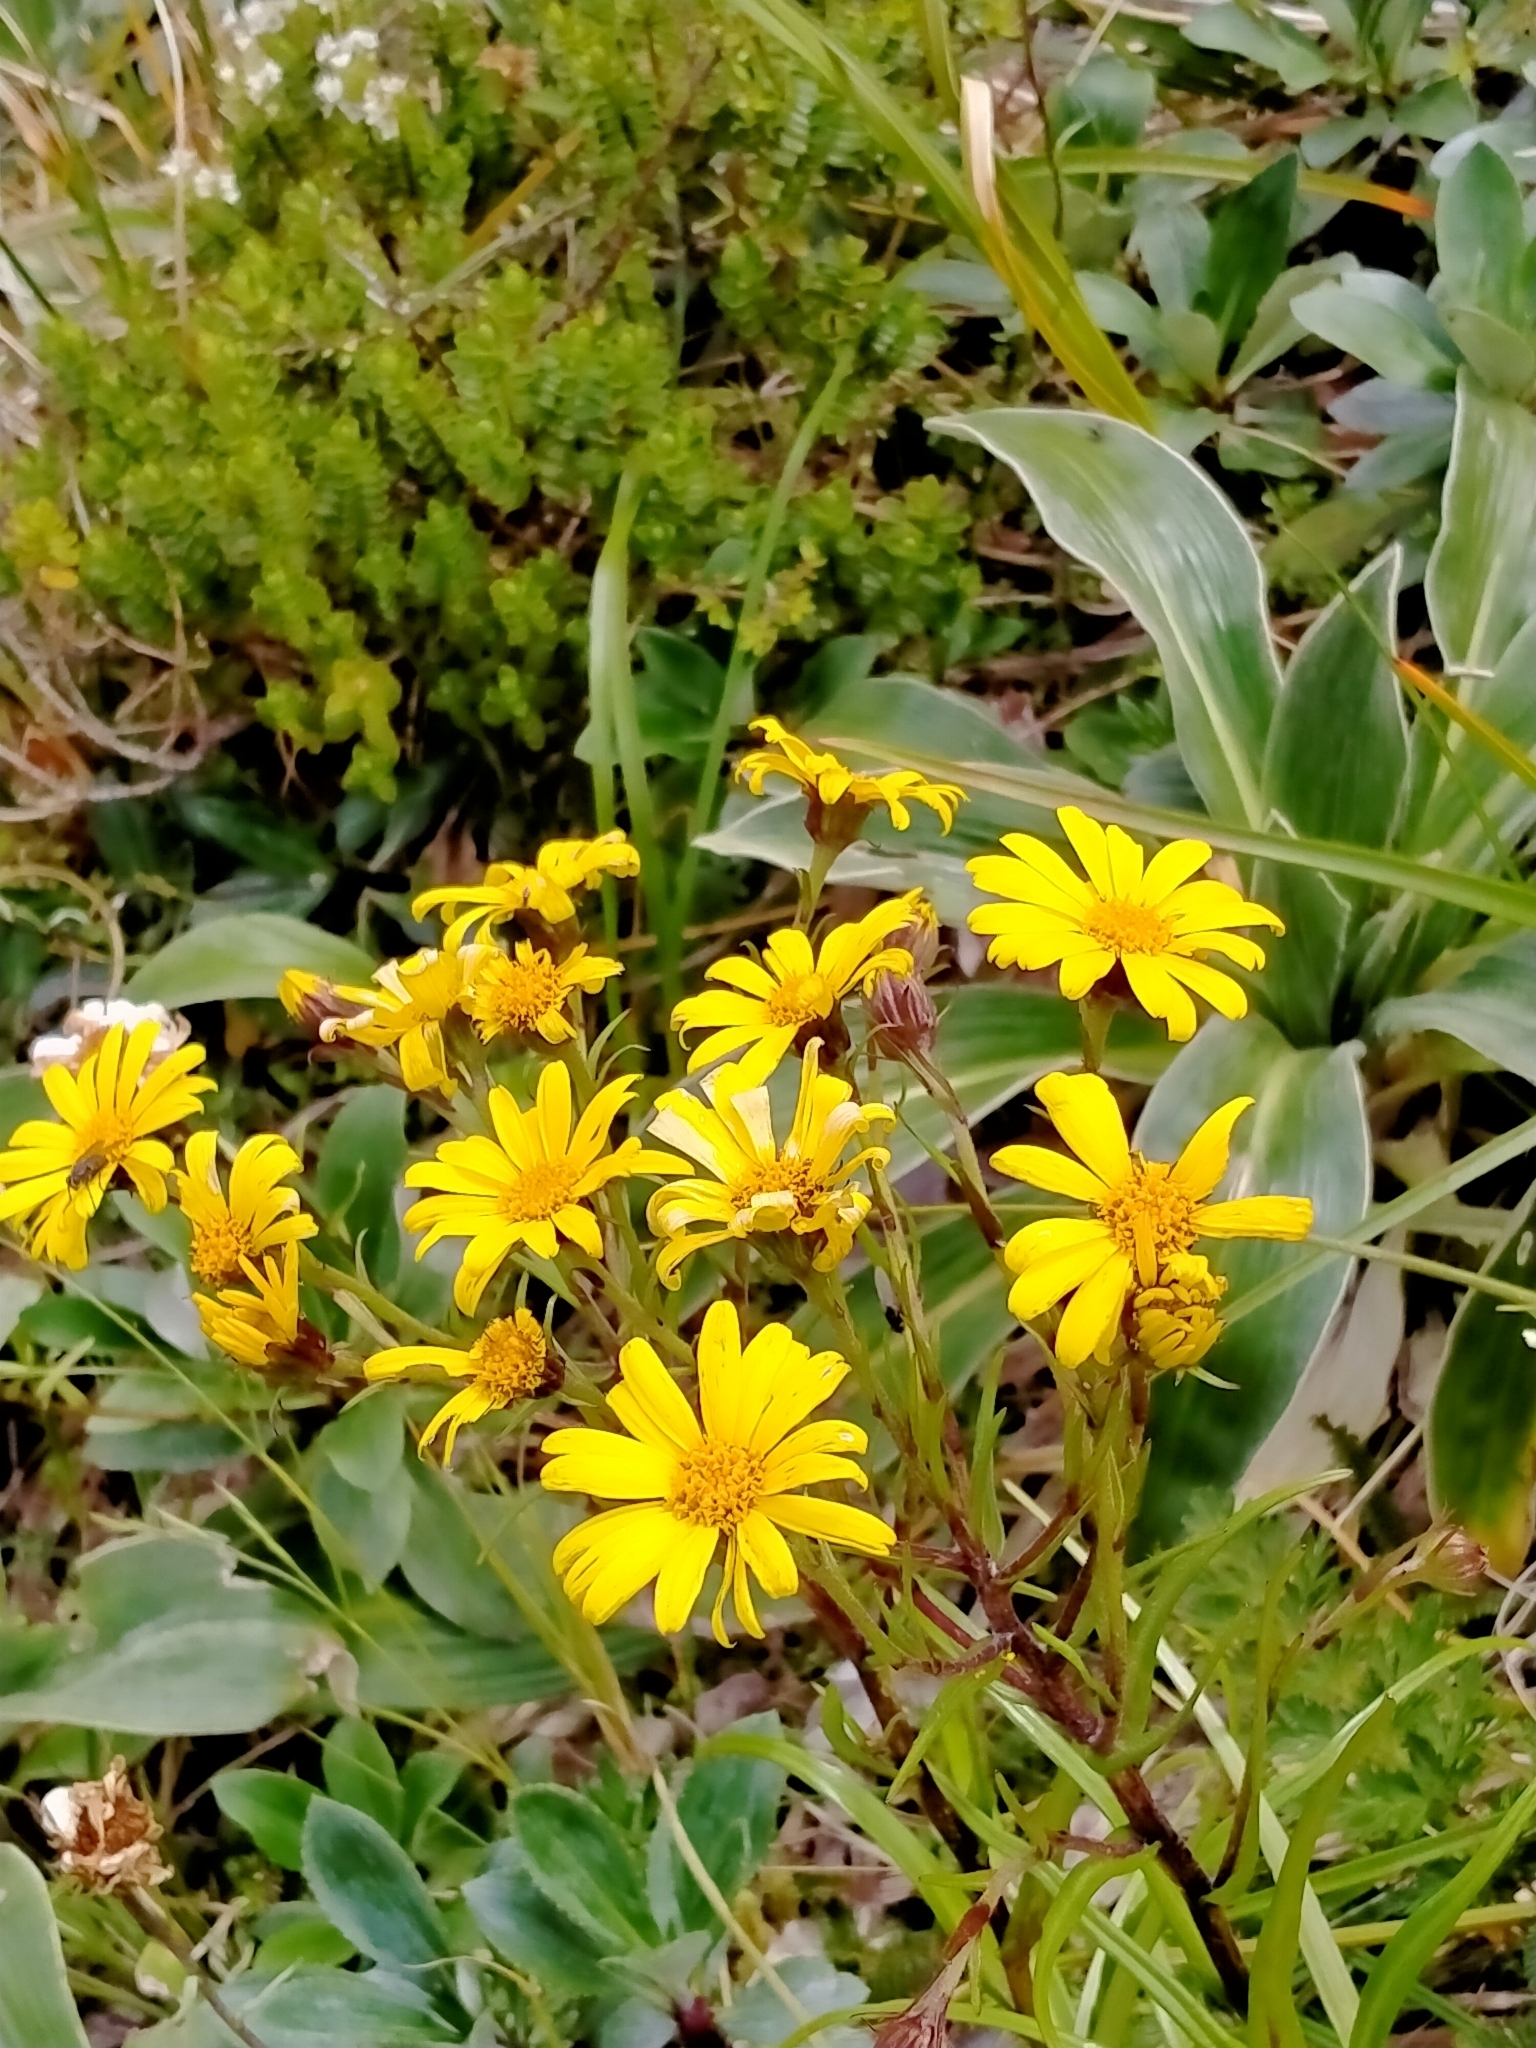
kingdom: Plantae
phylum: Tracheophyta
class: Magnoliopsida
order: Asterales
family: Asteraceae
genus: Dolichoglottis
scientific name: Dolichoglottis lyallii
